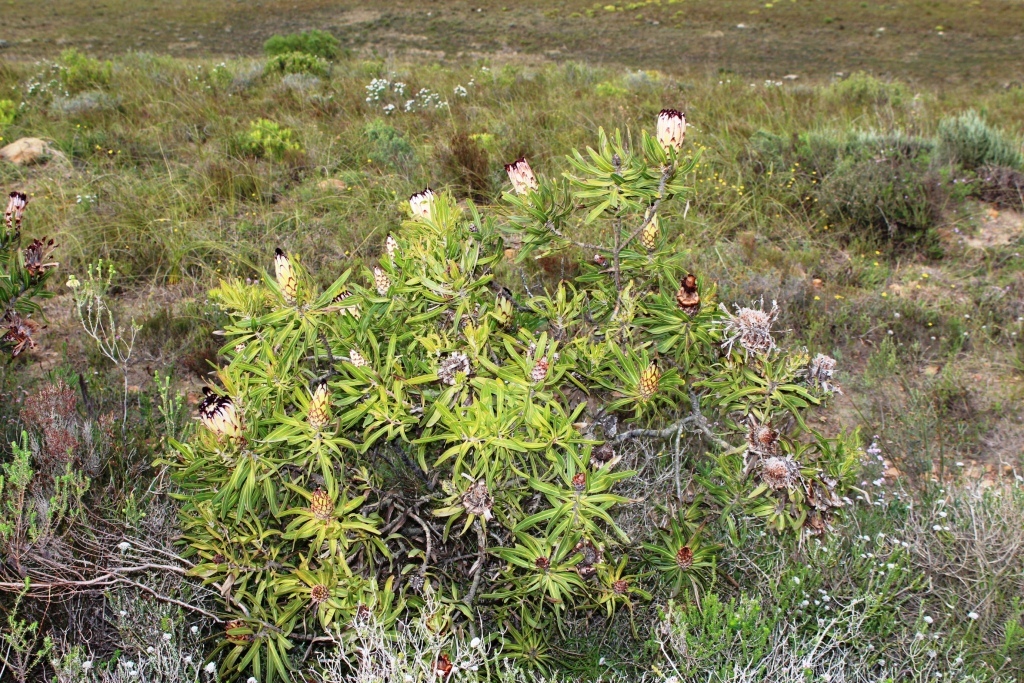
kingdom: Plantae
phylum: Tracheophyta
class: Magnoliopsida
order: Proteales
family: Proteaceae
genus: Protea
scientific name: Protea neriifolia
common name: Blue sugarbush
